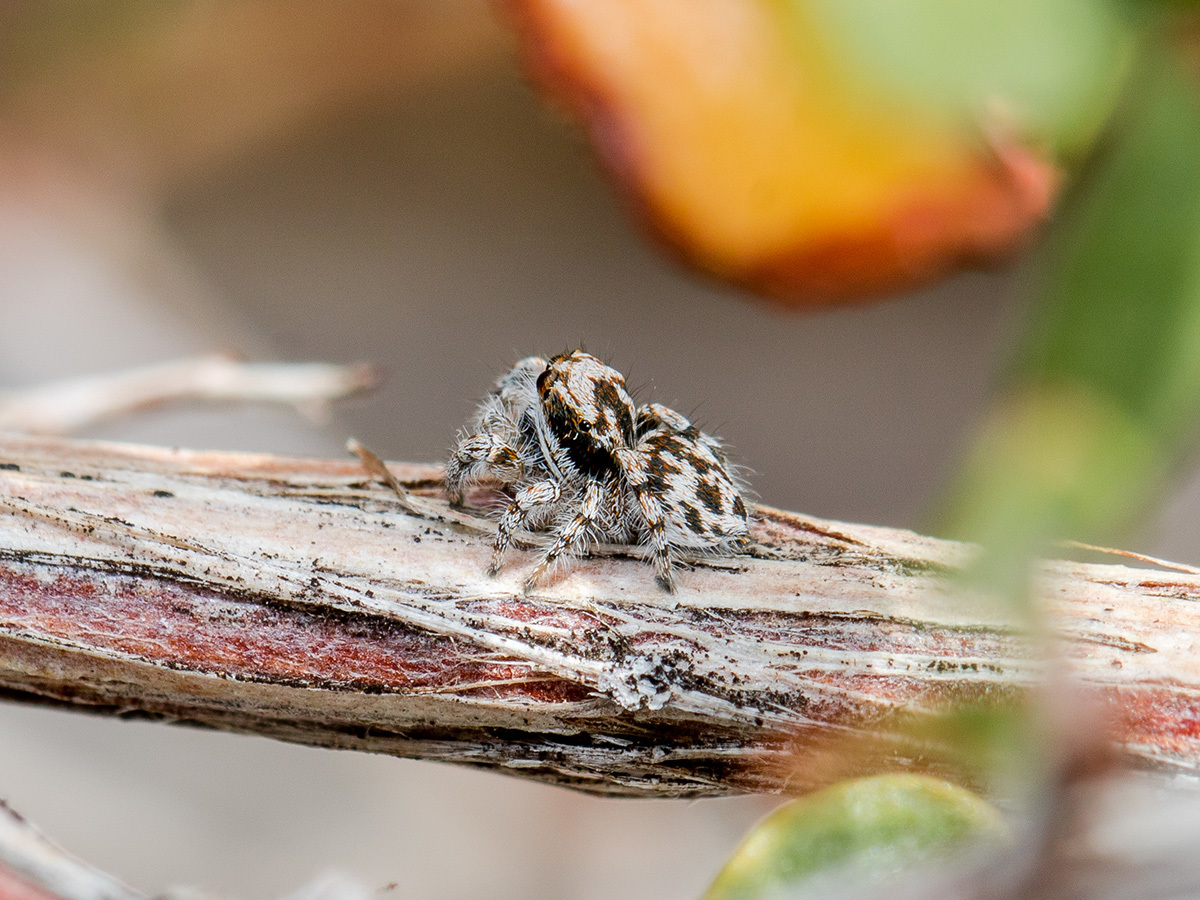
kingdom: Animalia
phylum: Arthropoda
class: Arachnida
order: Araneae
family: Salticidae
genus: Pseudomogrus
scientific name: Pseudomogrus dalaensis
